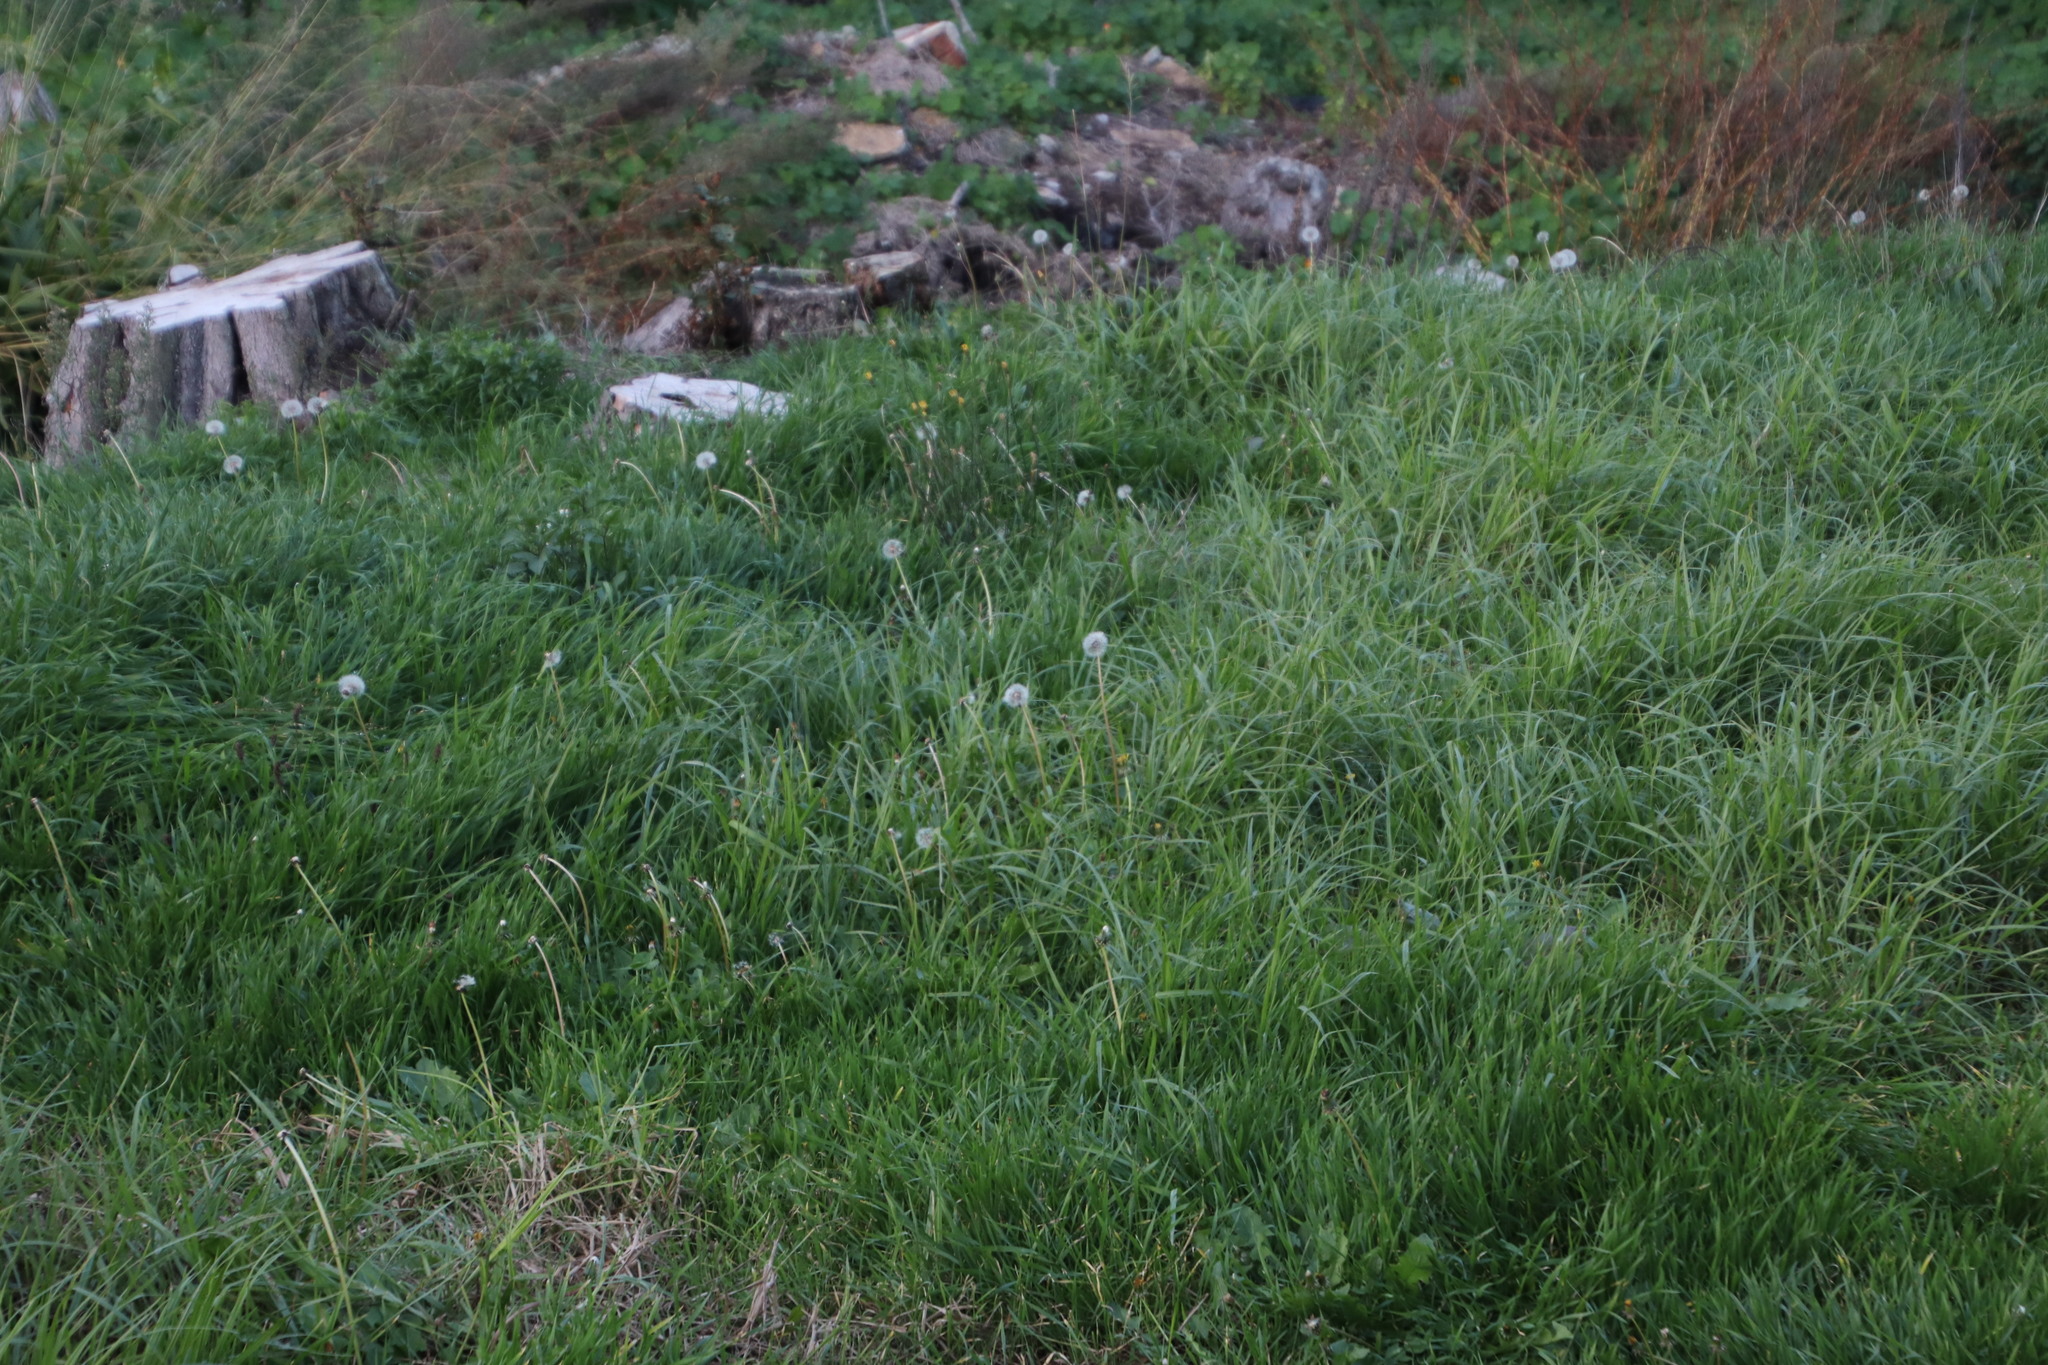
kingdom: Plantae
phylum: Tracheophyta
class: Magnoliopsida
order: Asterales
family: Asteraceae
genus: Taraxacum
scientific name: Taraxacum officinale
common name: Common dandelion
